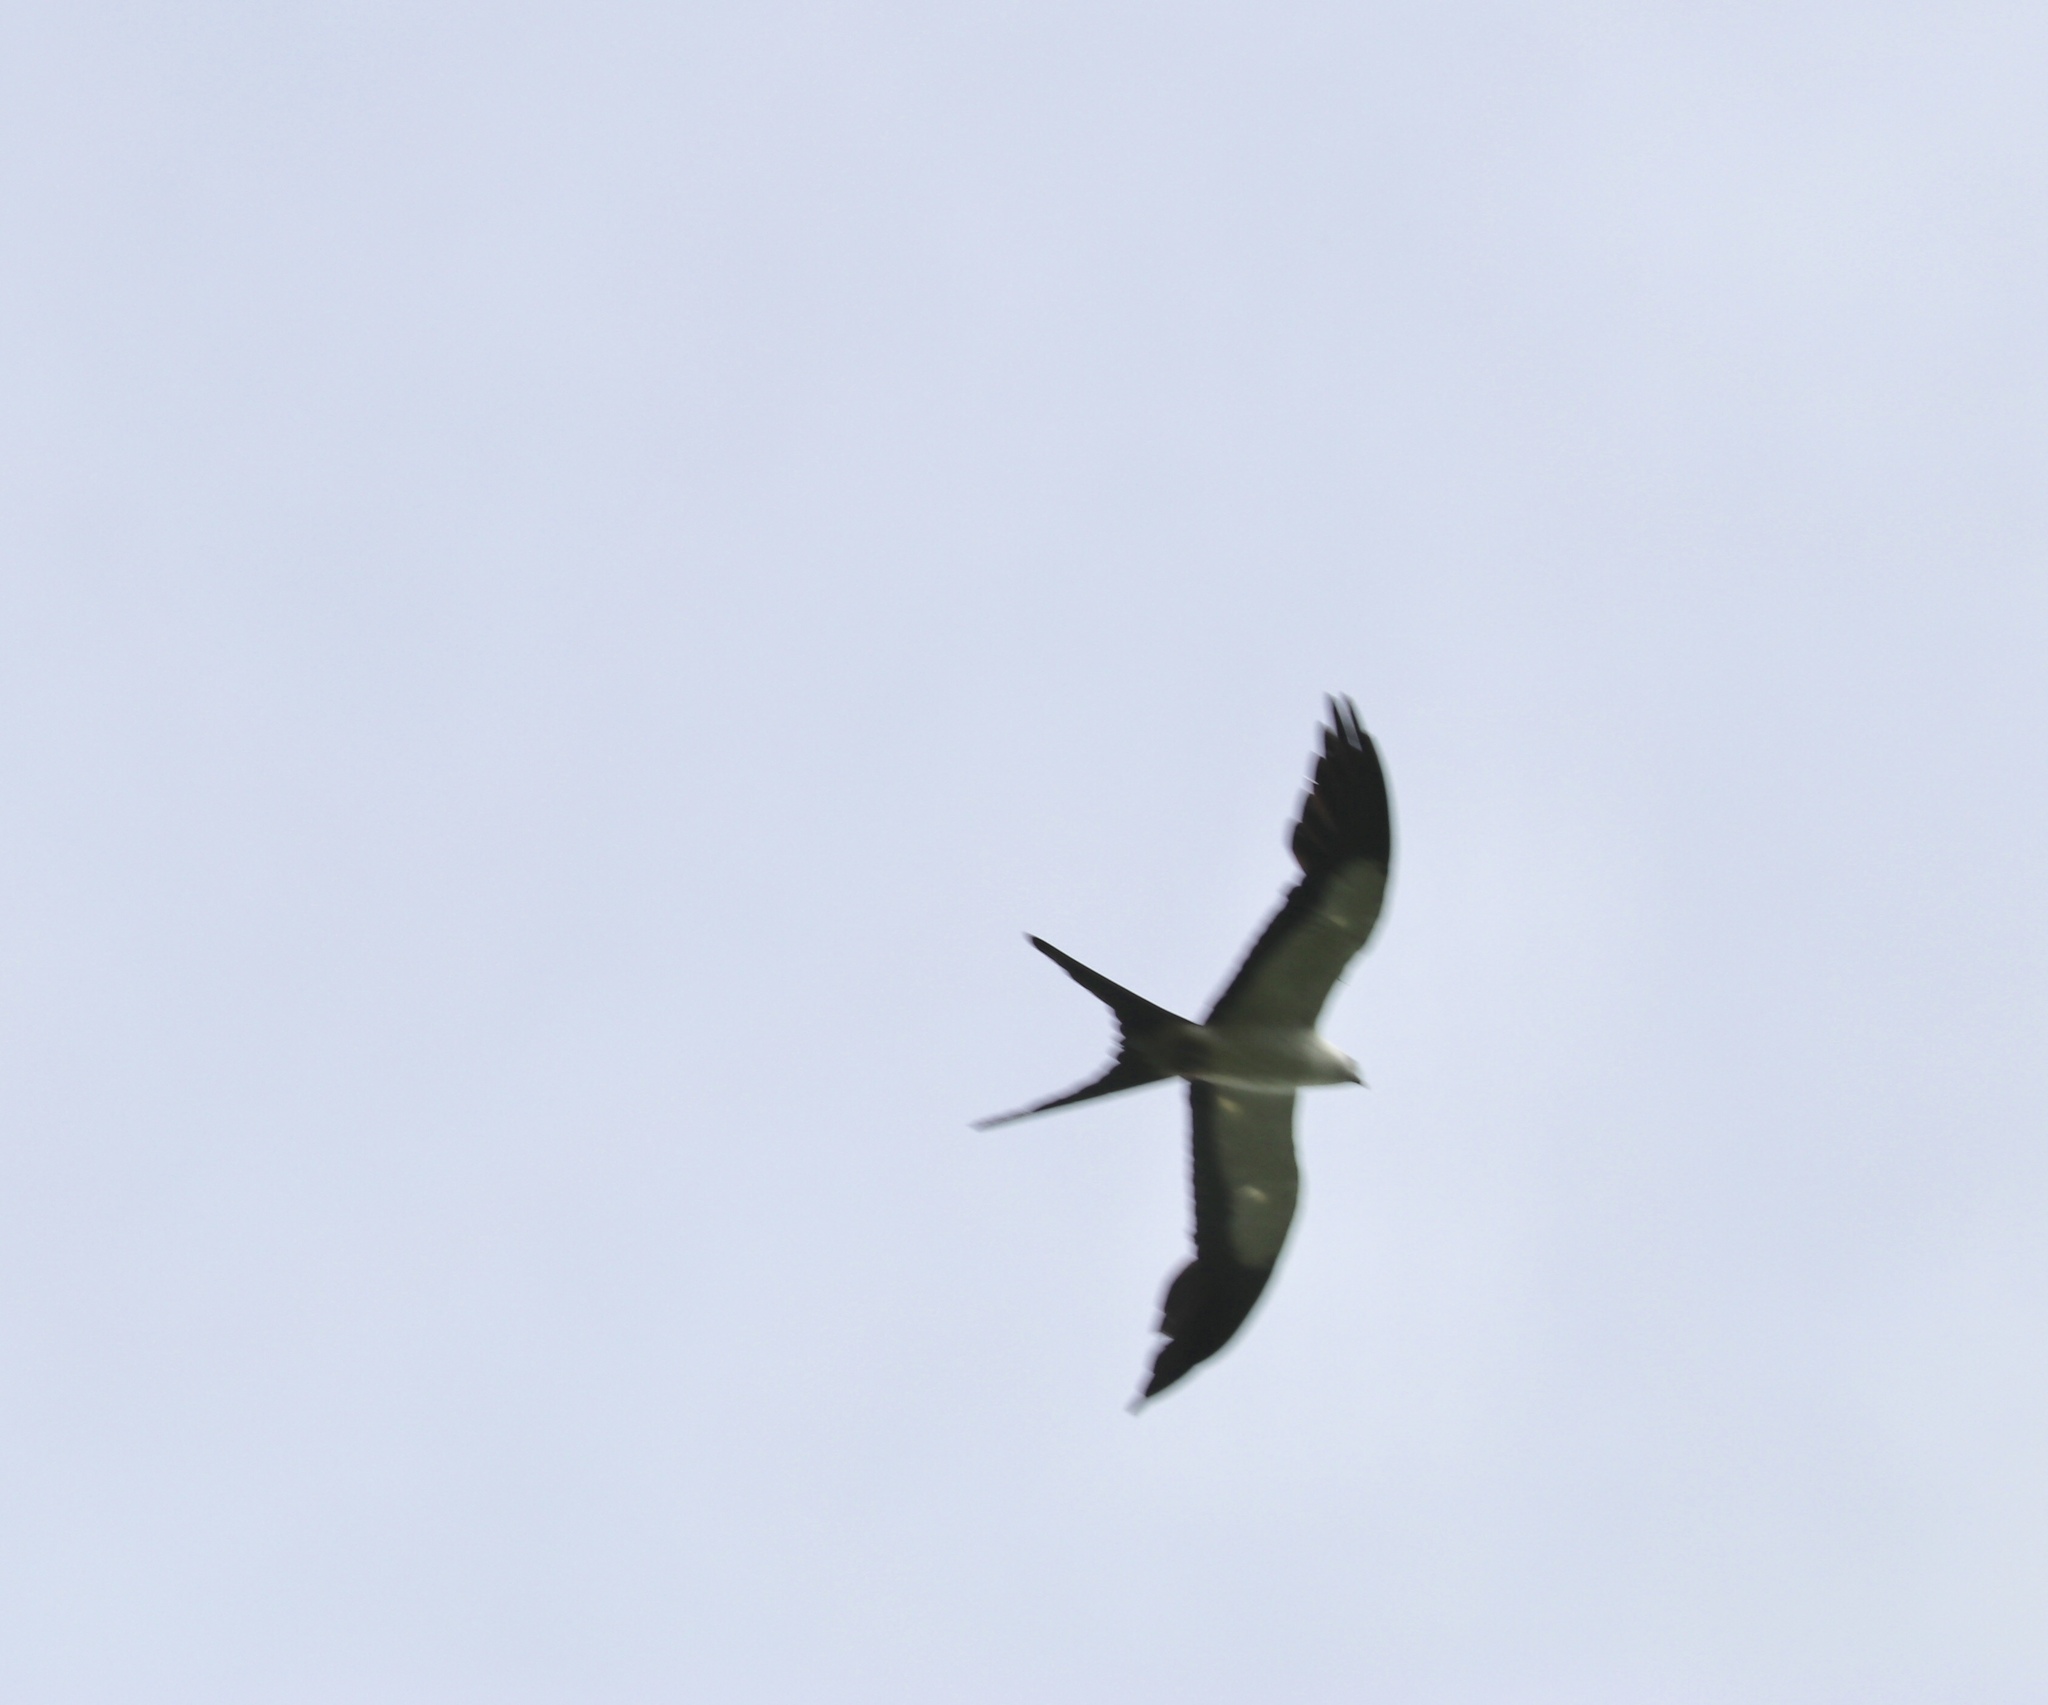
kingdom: Animalia
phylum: Chordata
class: Aves
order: Accipitriformes
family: Accipitridae
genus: Elanoides
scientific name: Elanoides forficatus
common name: Swallow-tailed kite
